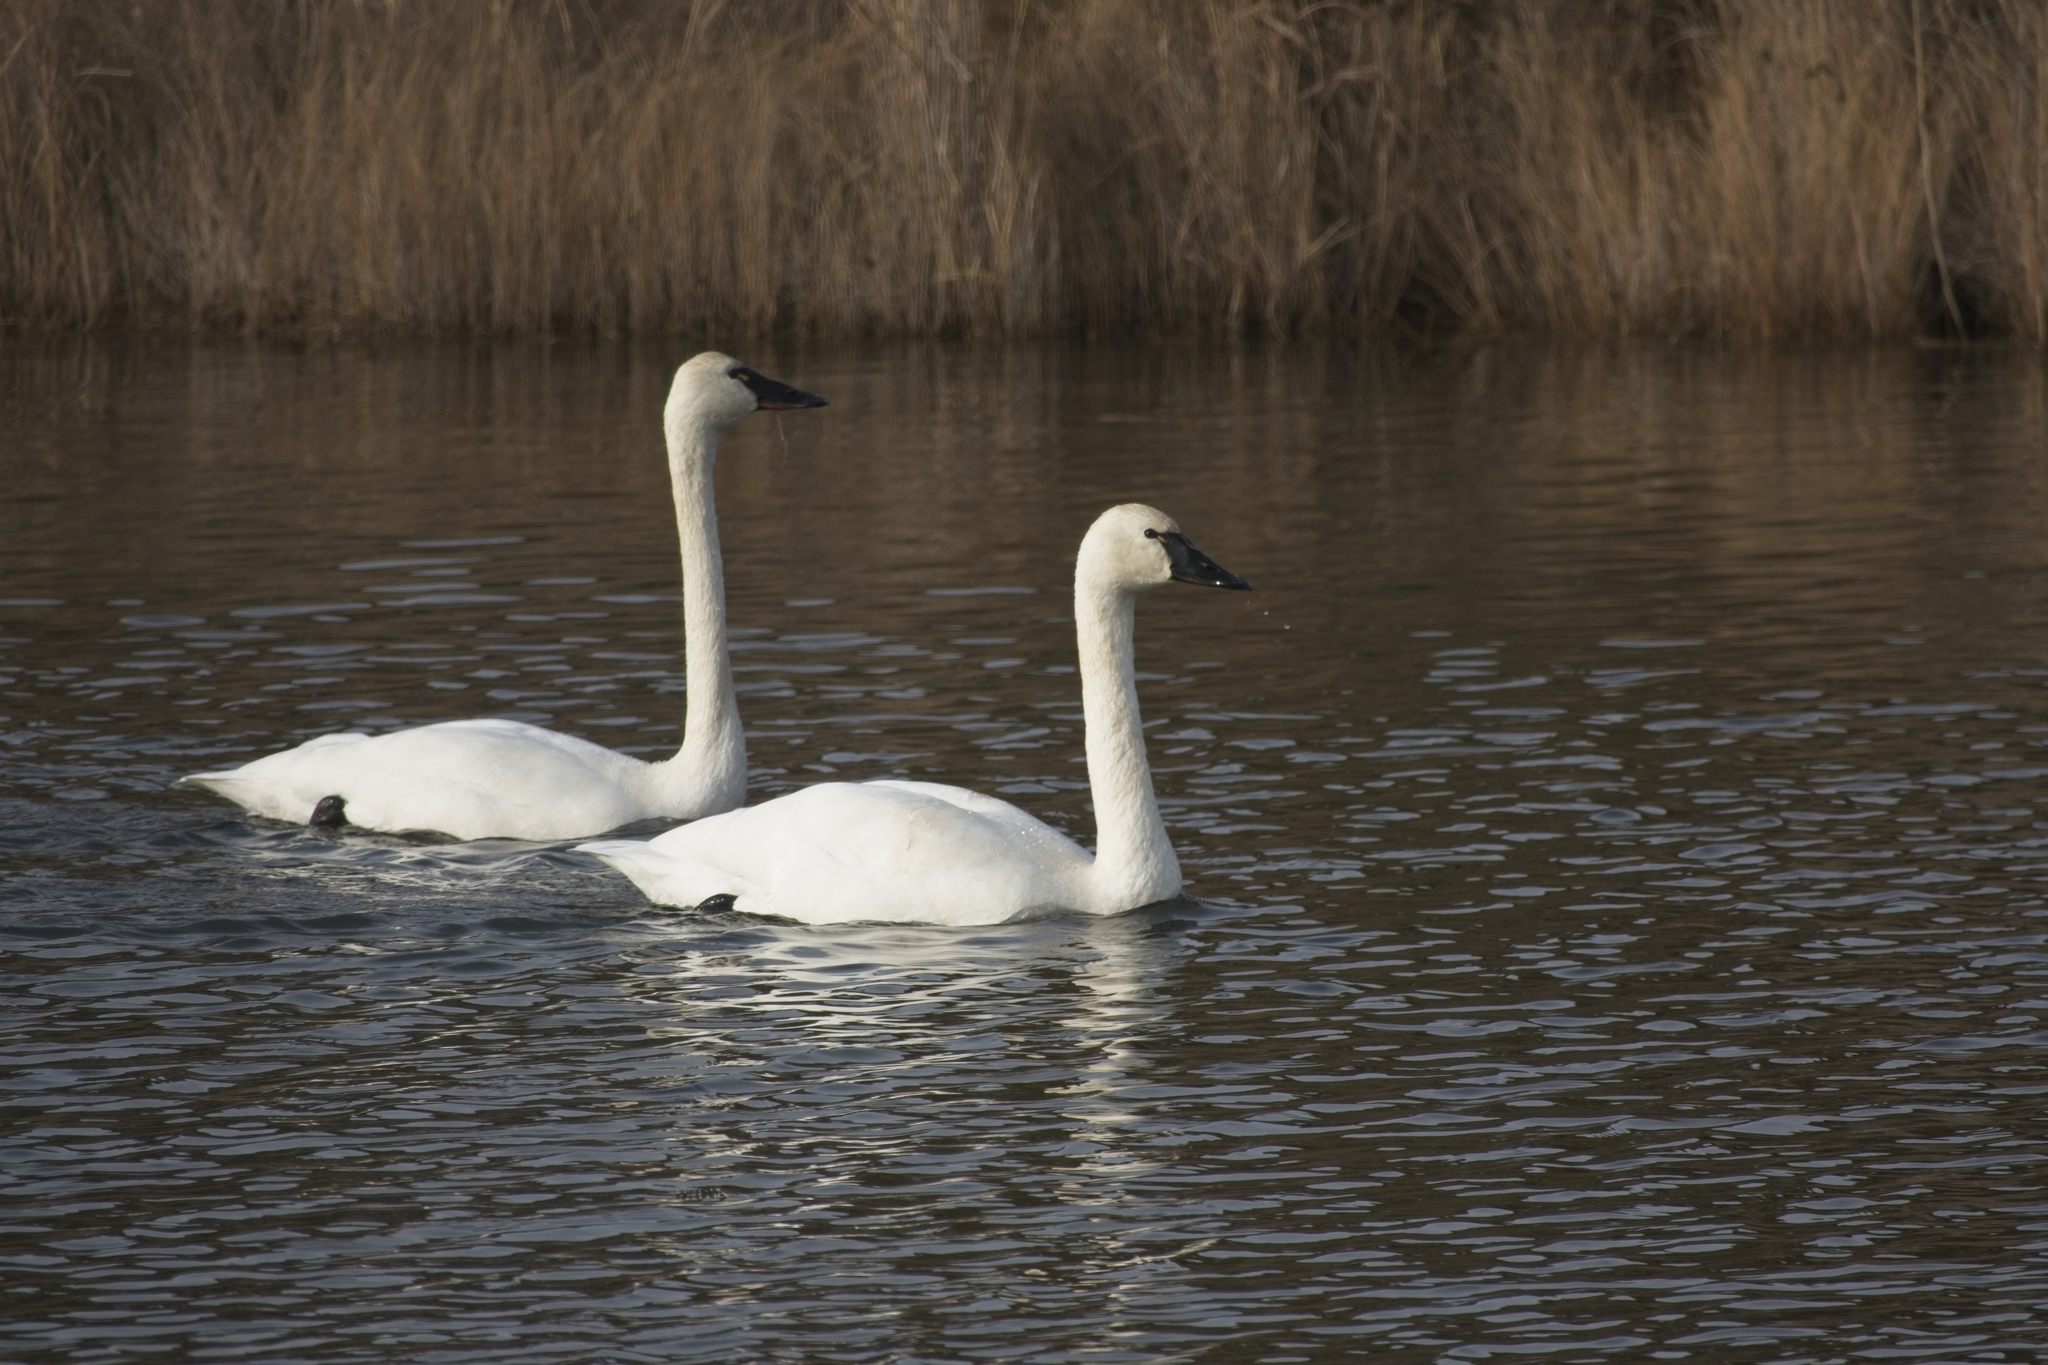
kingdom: Animalia
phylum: Chordata
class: Aves
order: Anseriformes
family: Anatidae
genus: Cygnus
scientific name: Cygnus columbianus
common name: Tundra swan
